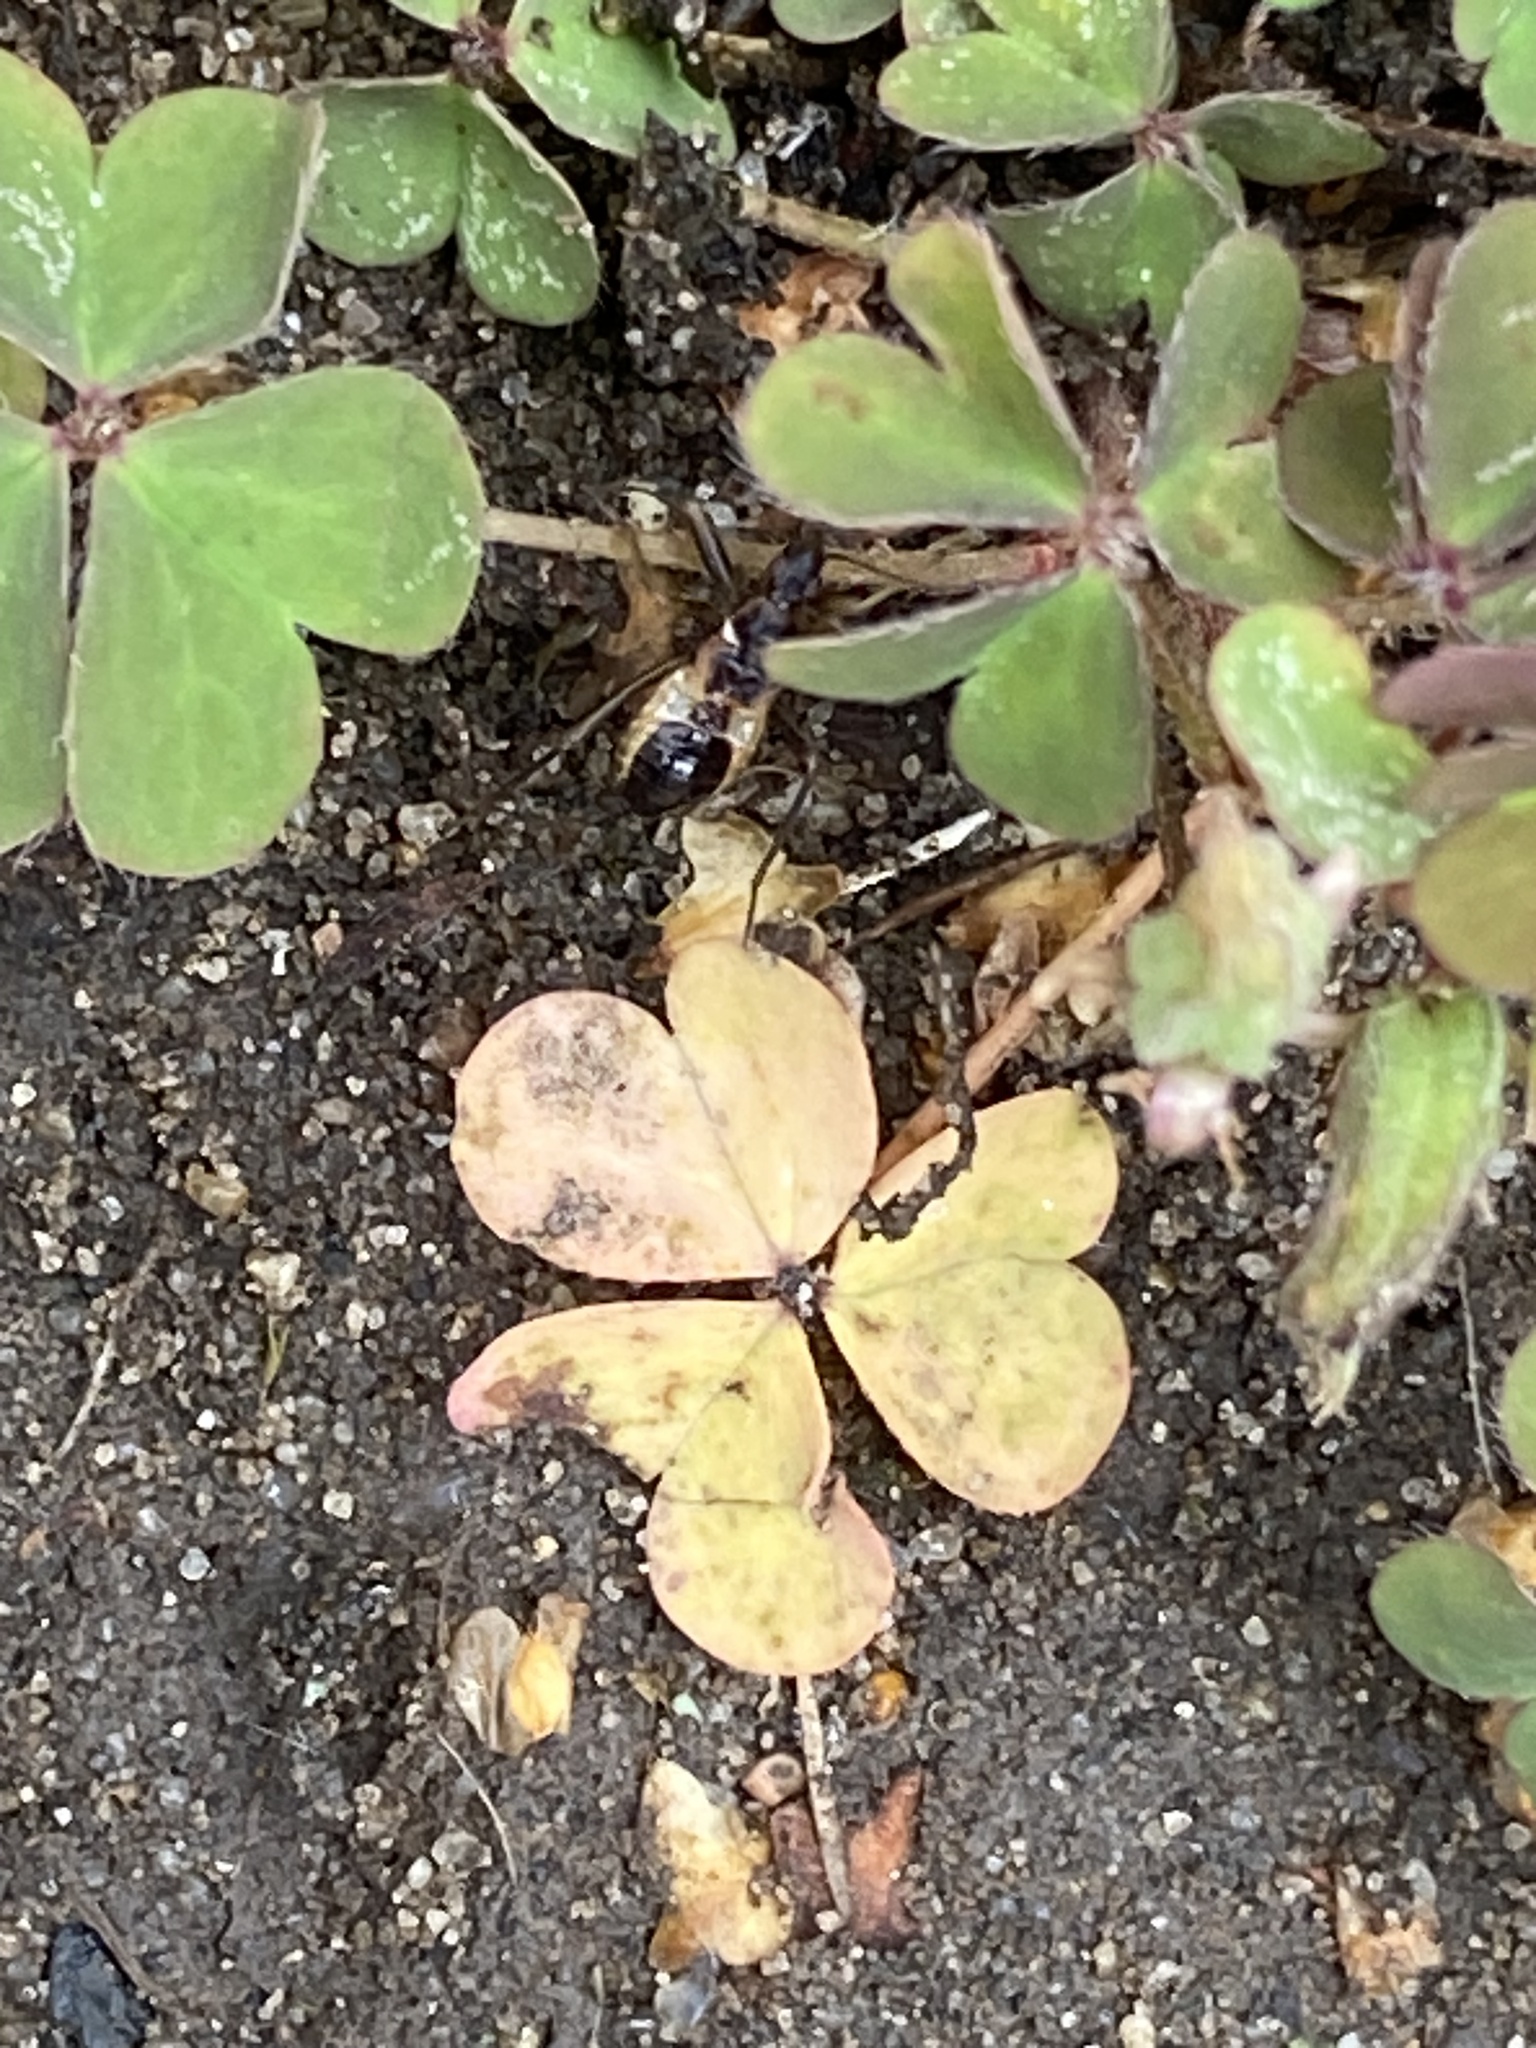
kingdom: Animalia
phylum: Arthropoda
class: Insecta
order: Hemiptera
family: Nabidae
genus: Himacerus
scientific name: Himacerus mirmicoides
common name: Ant damsel bug
